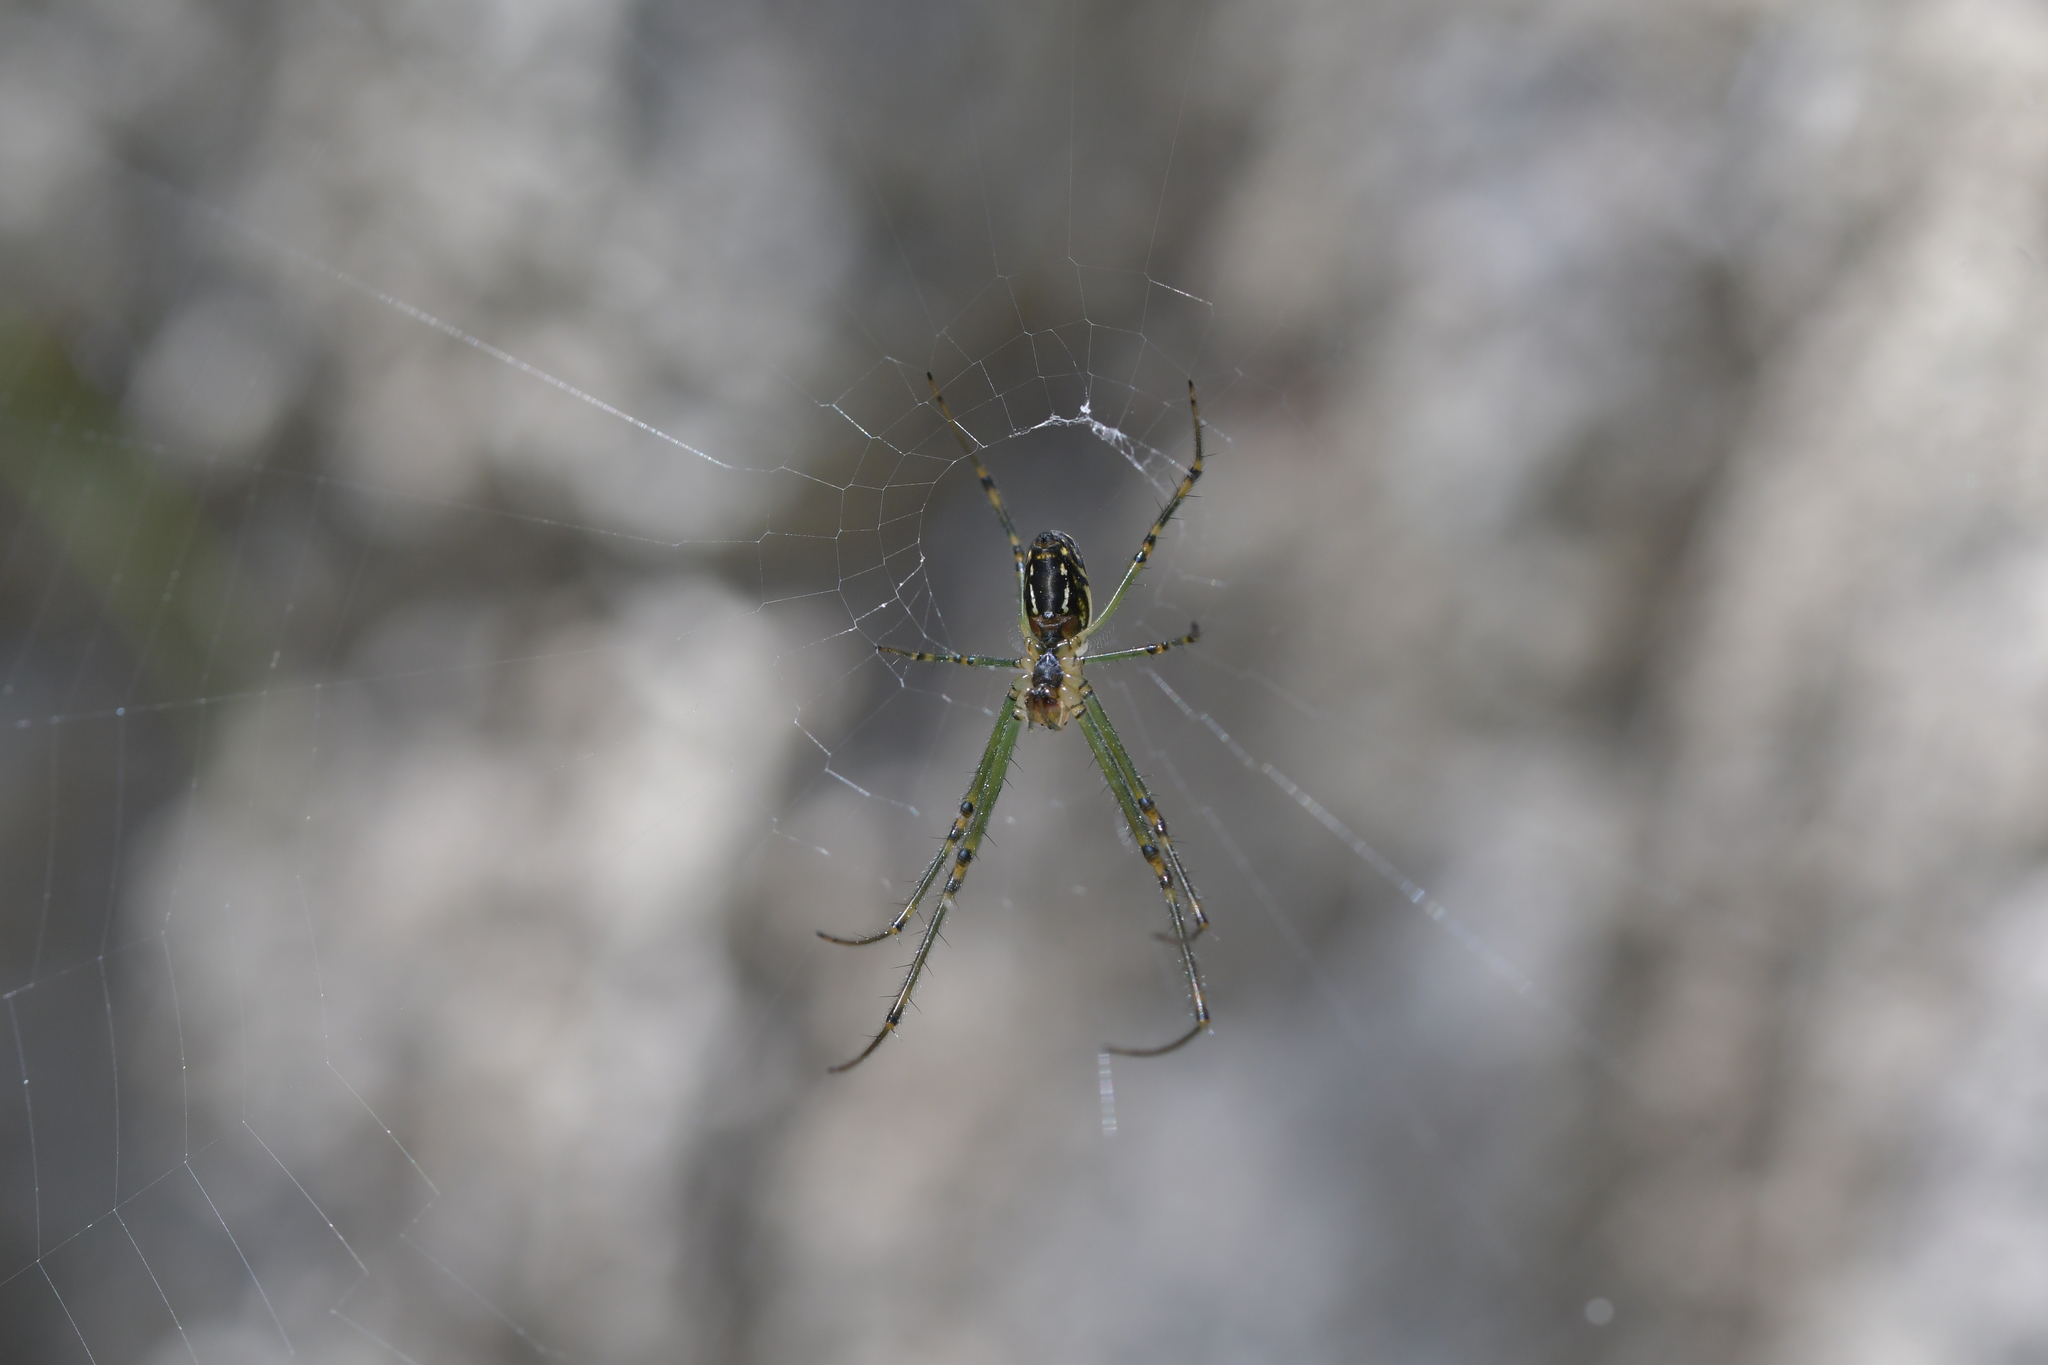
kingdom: Animalia
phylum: Arthropoda
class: Arachnida
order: Araneae
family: Tetragnathidae
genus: Leucauge
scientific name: Leucauge dromedaria
